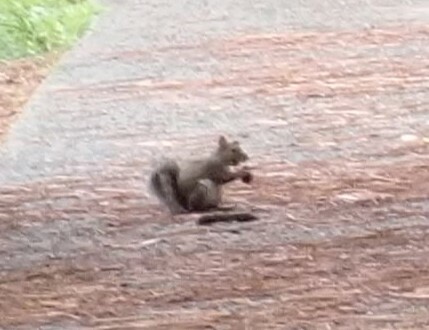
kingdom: Animalia
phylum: Chordata
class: Mammalia
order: Rodentia
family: Sciuridae
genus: Sciurus
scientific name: Sciurus carolinensis
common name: Eastern gray squirrel
